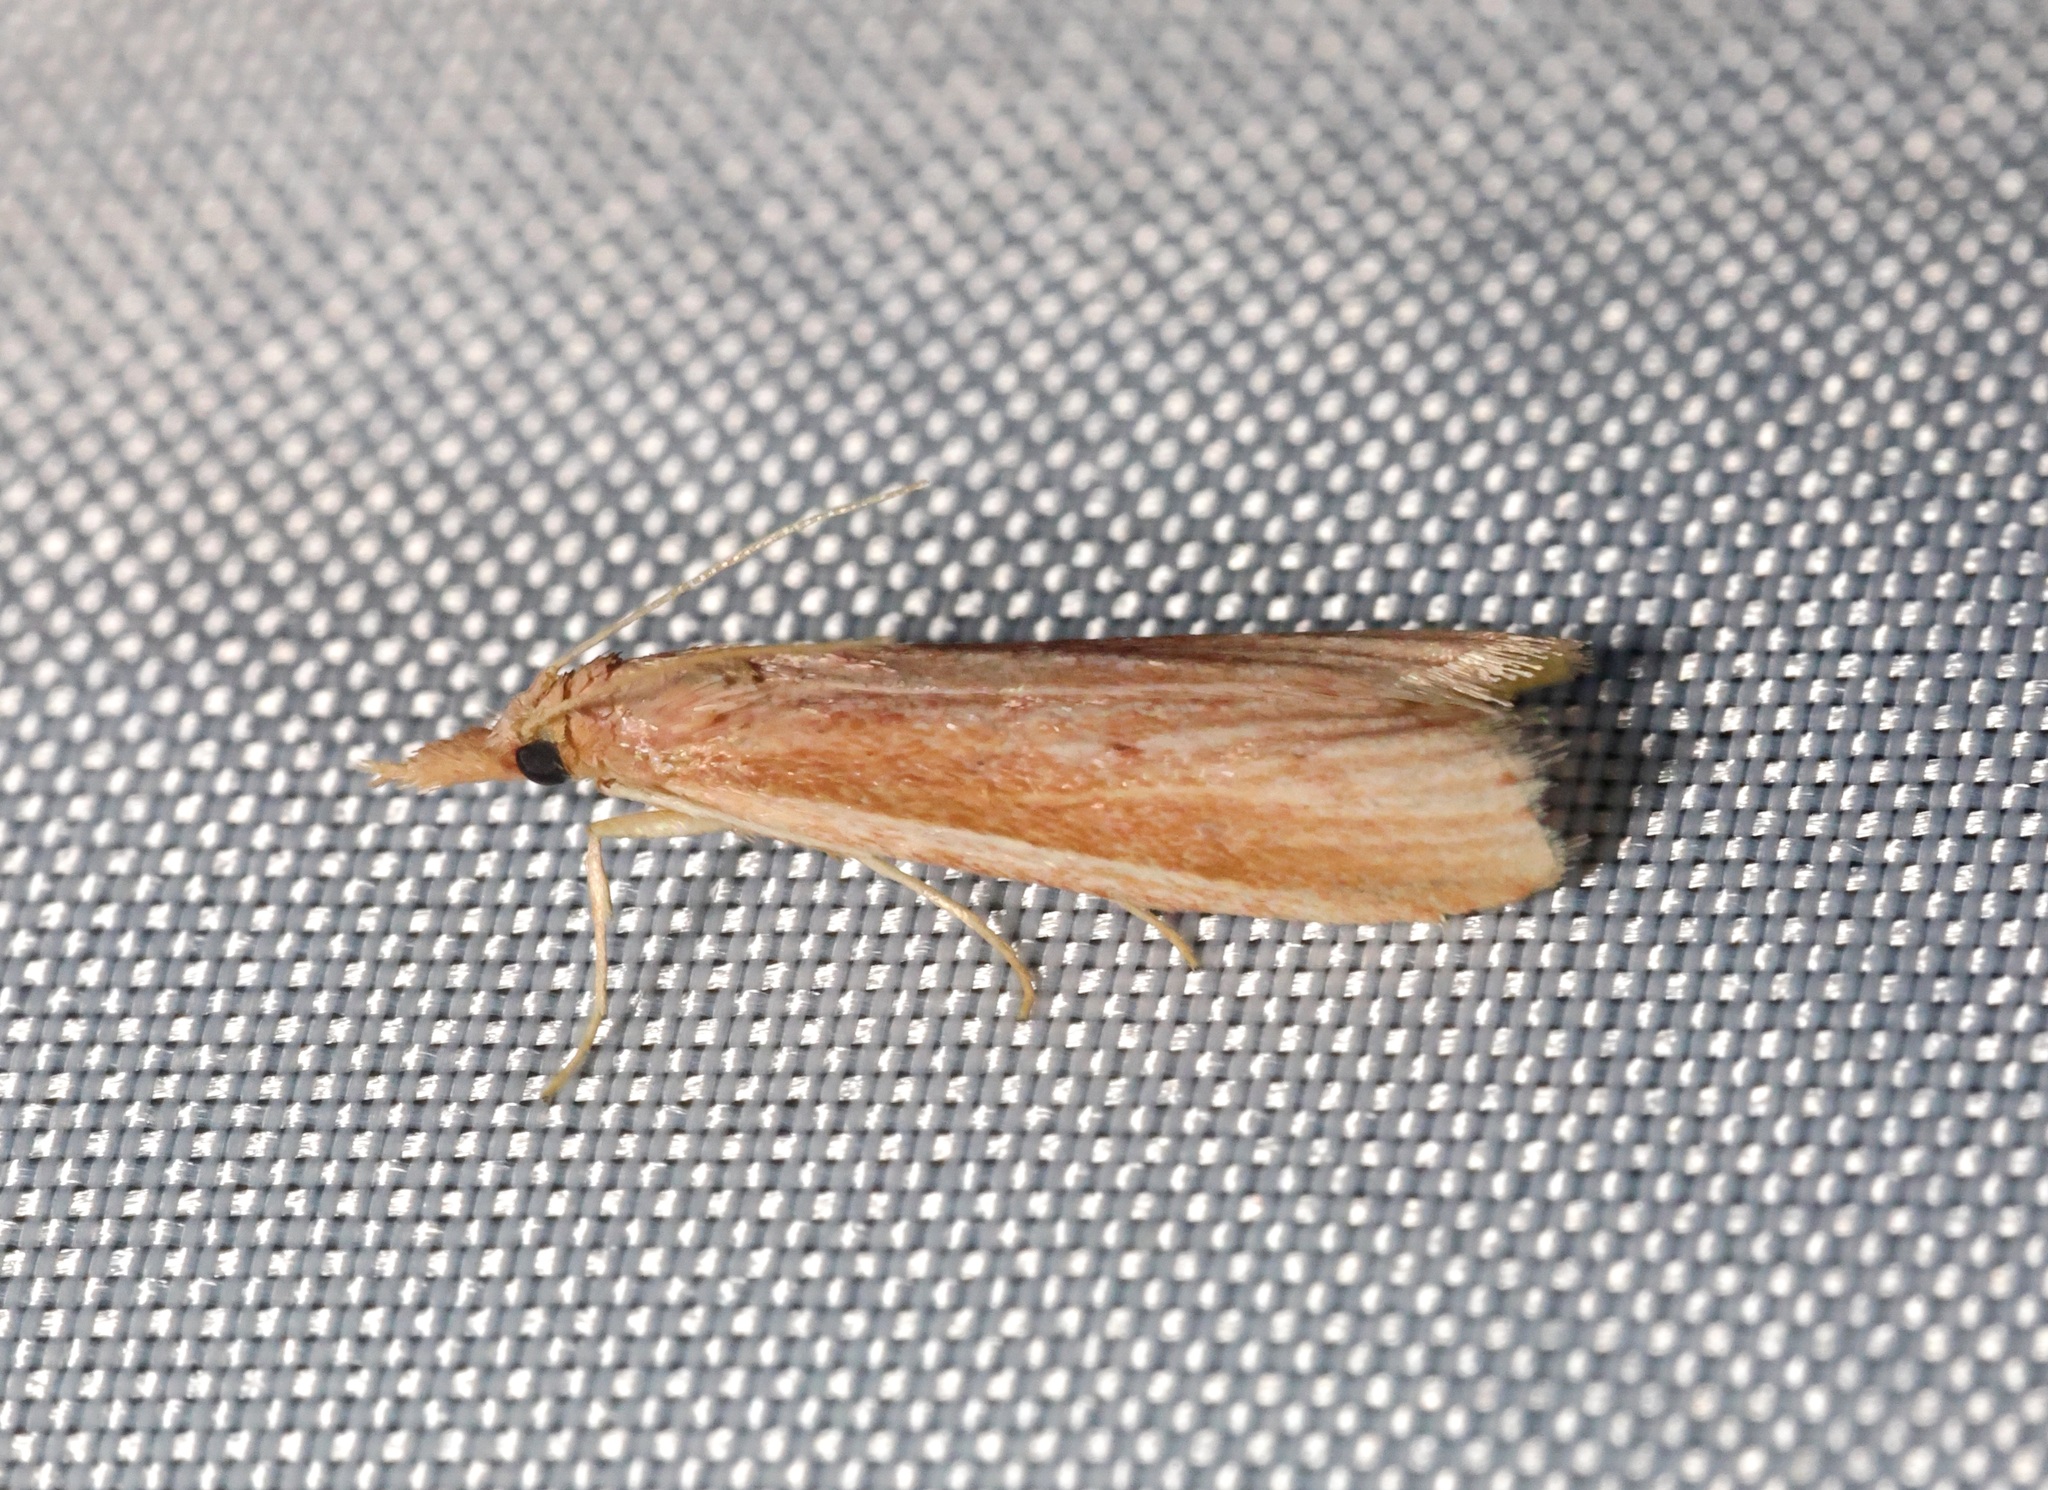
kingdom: Animalia
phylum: Arthropoda
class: Insecta
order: Lepidoptera
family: Pyralidae
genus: Emmalocera
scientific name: Emmalocera leucotaeniella
